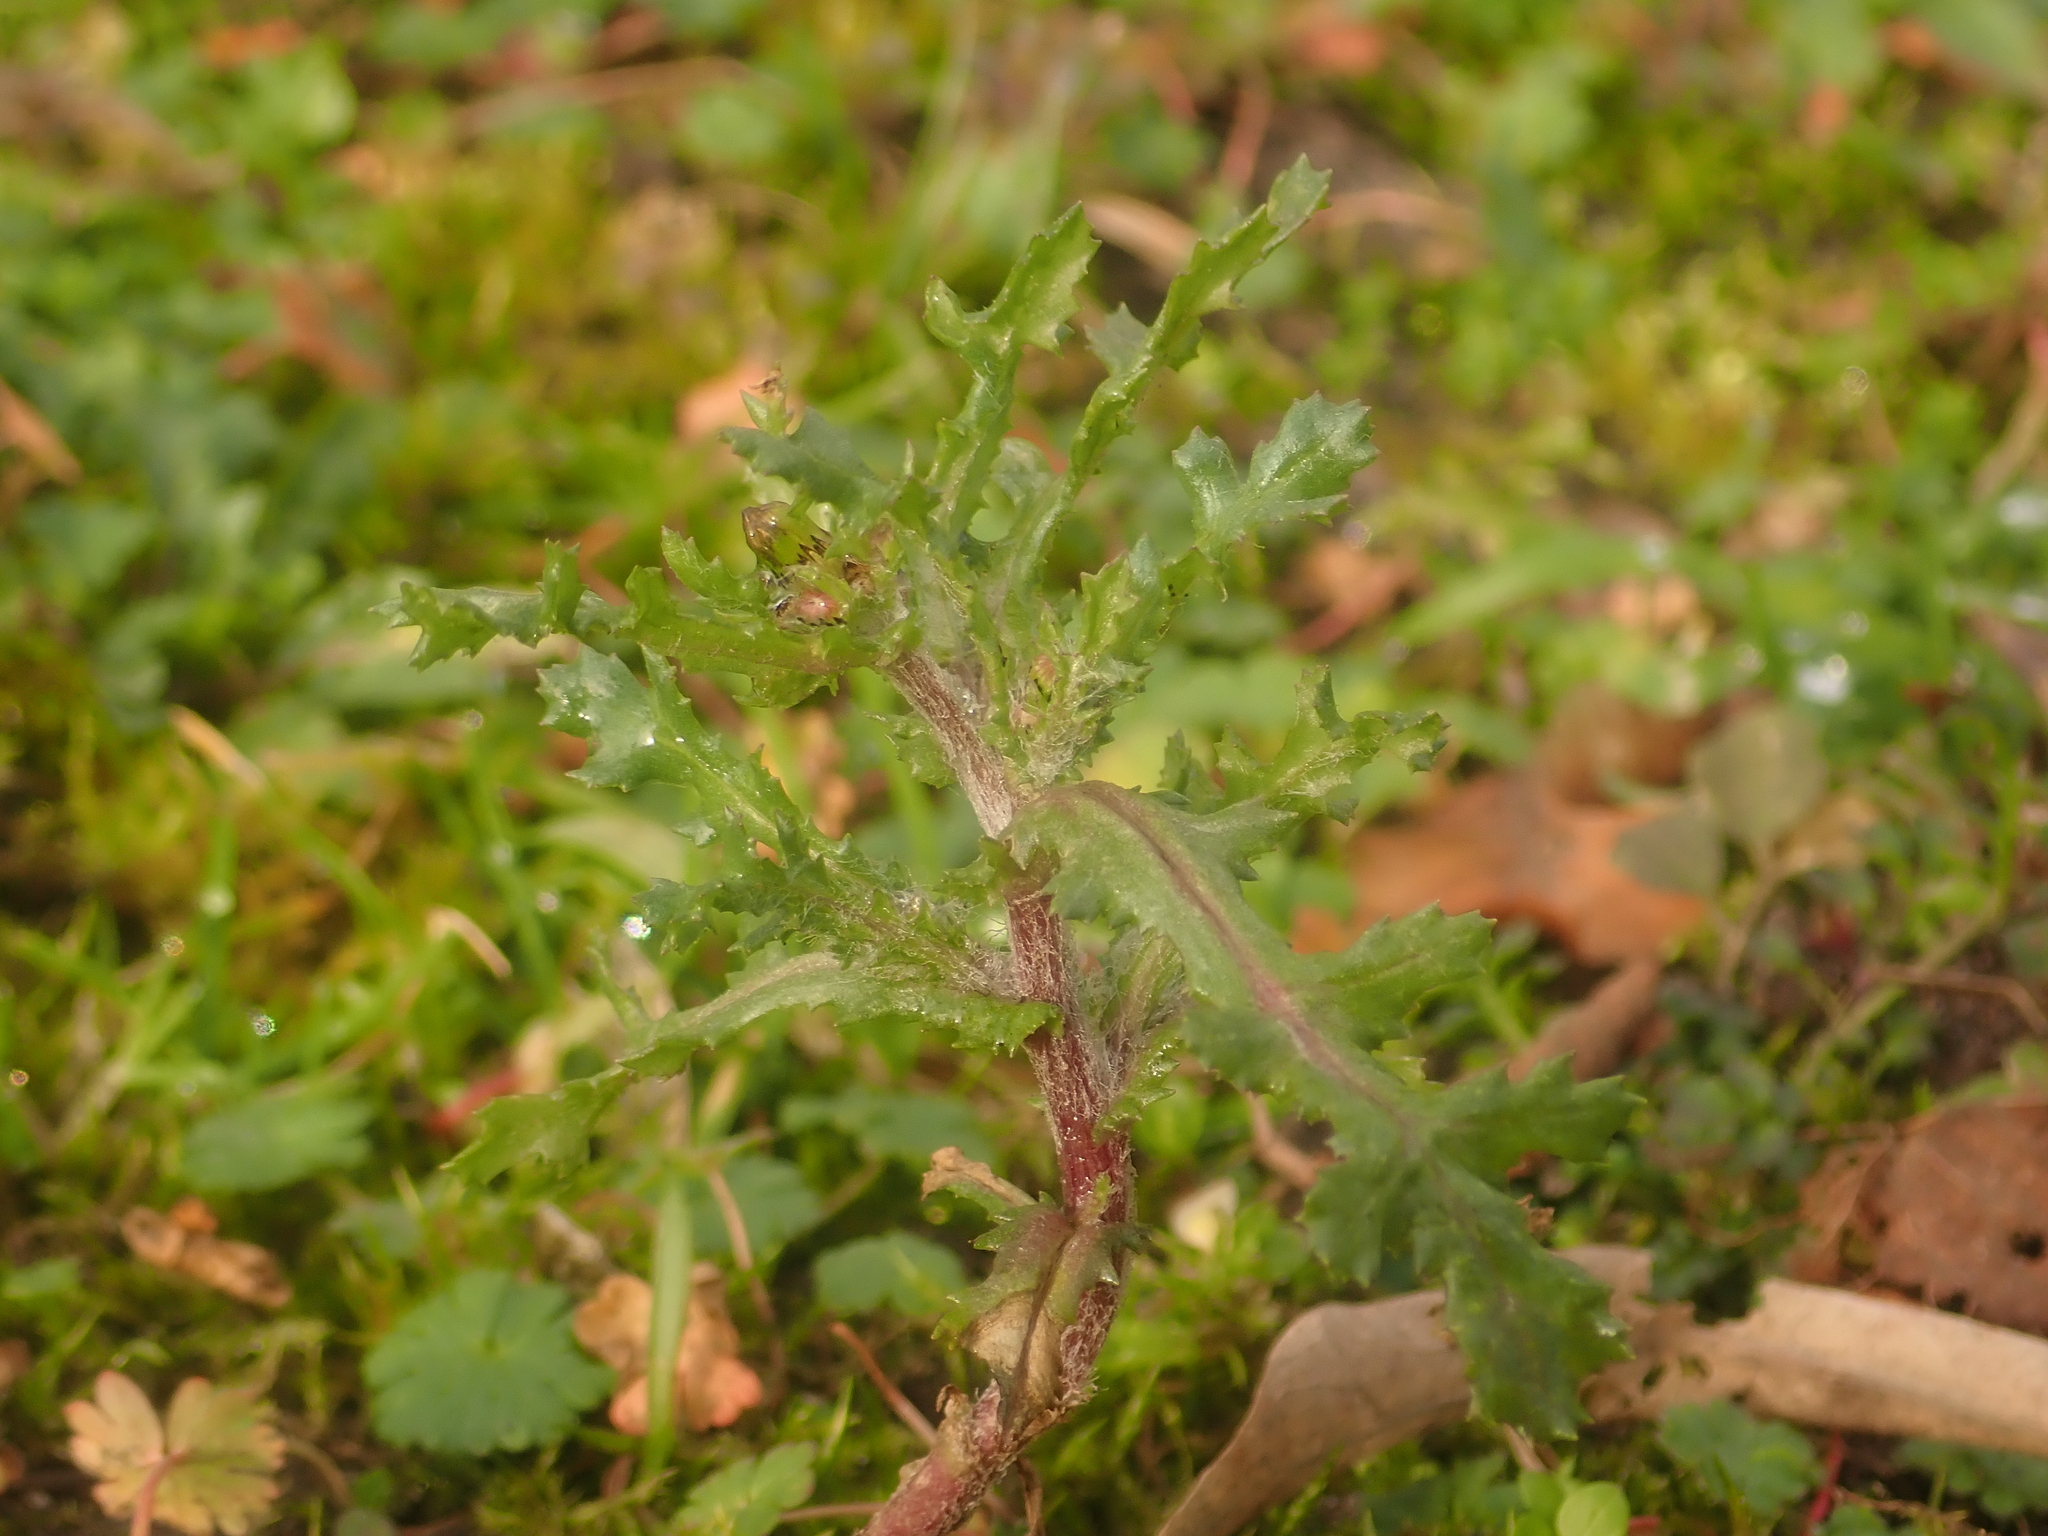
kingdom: Plantae
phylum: Tracheophyta
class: Magnoliopsida
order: Asterales
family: Asteraceae
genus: Senecio
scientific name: Senecio vulgaris
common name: Old-man-in-the-spring
